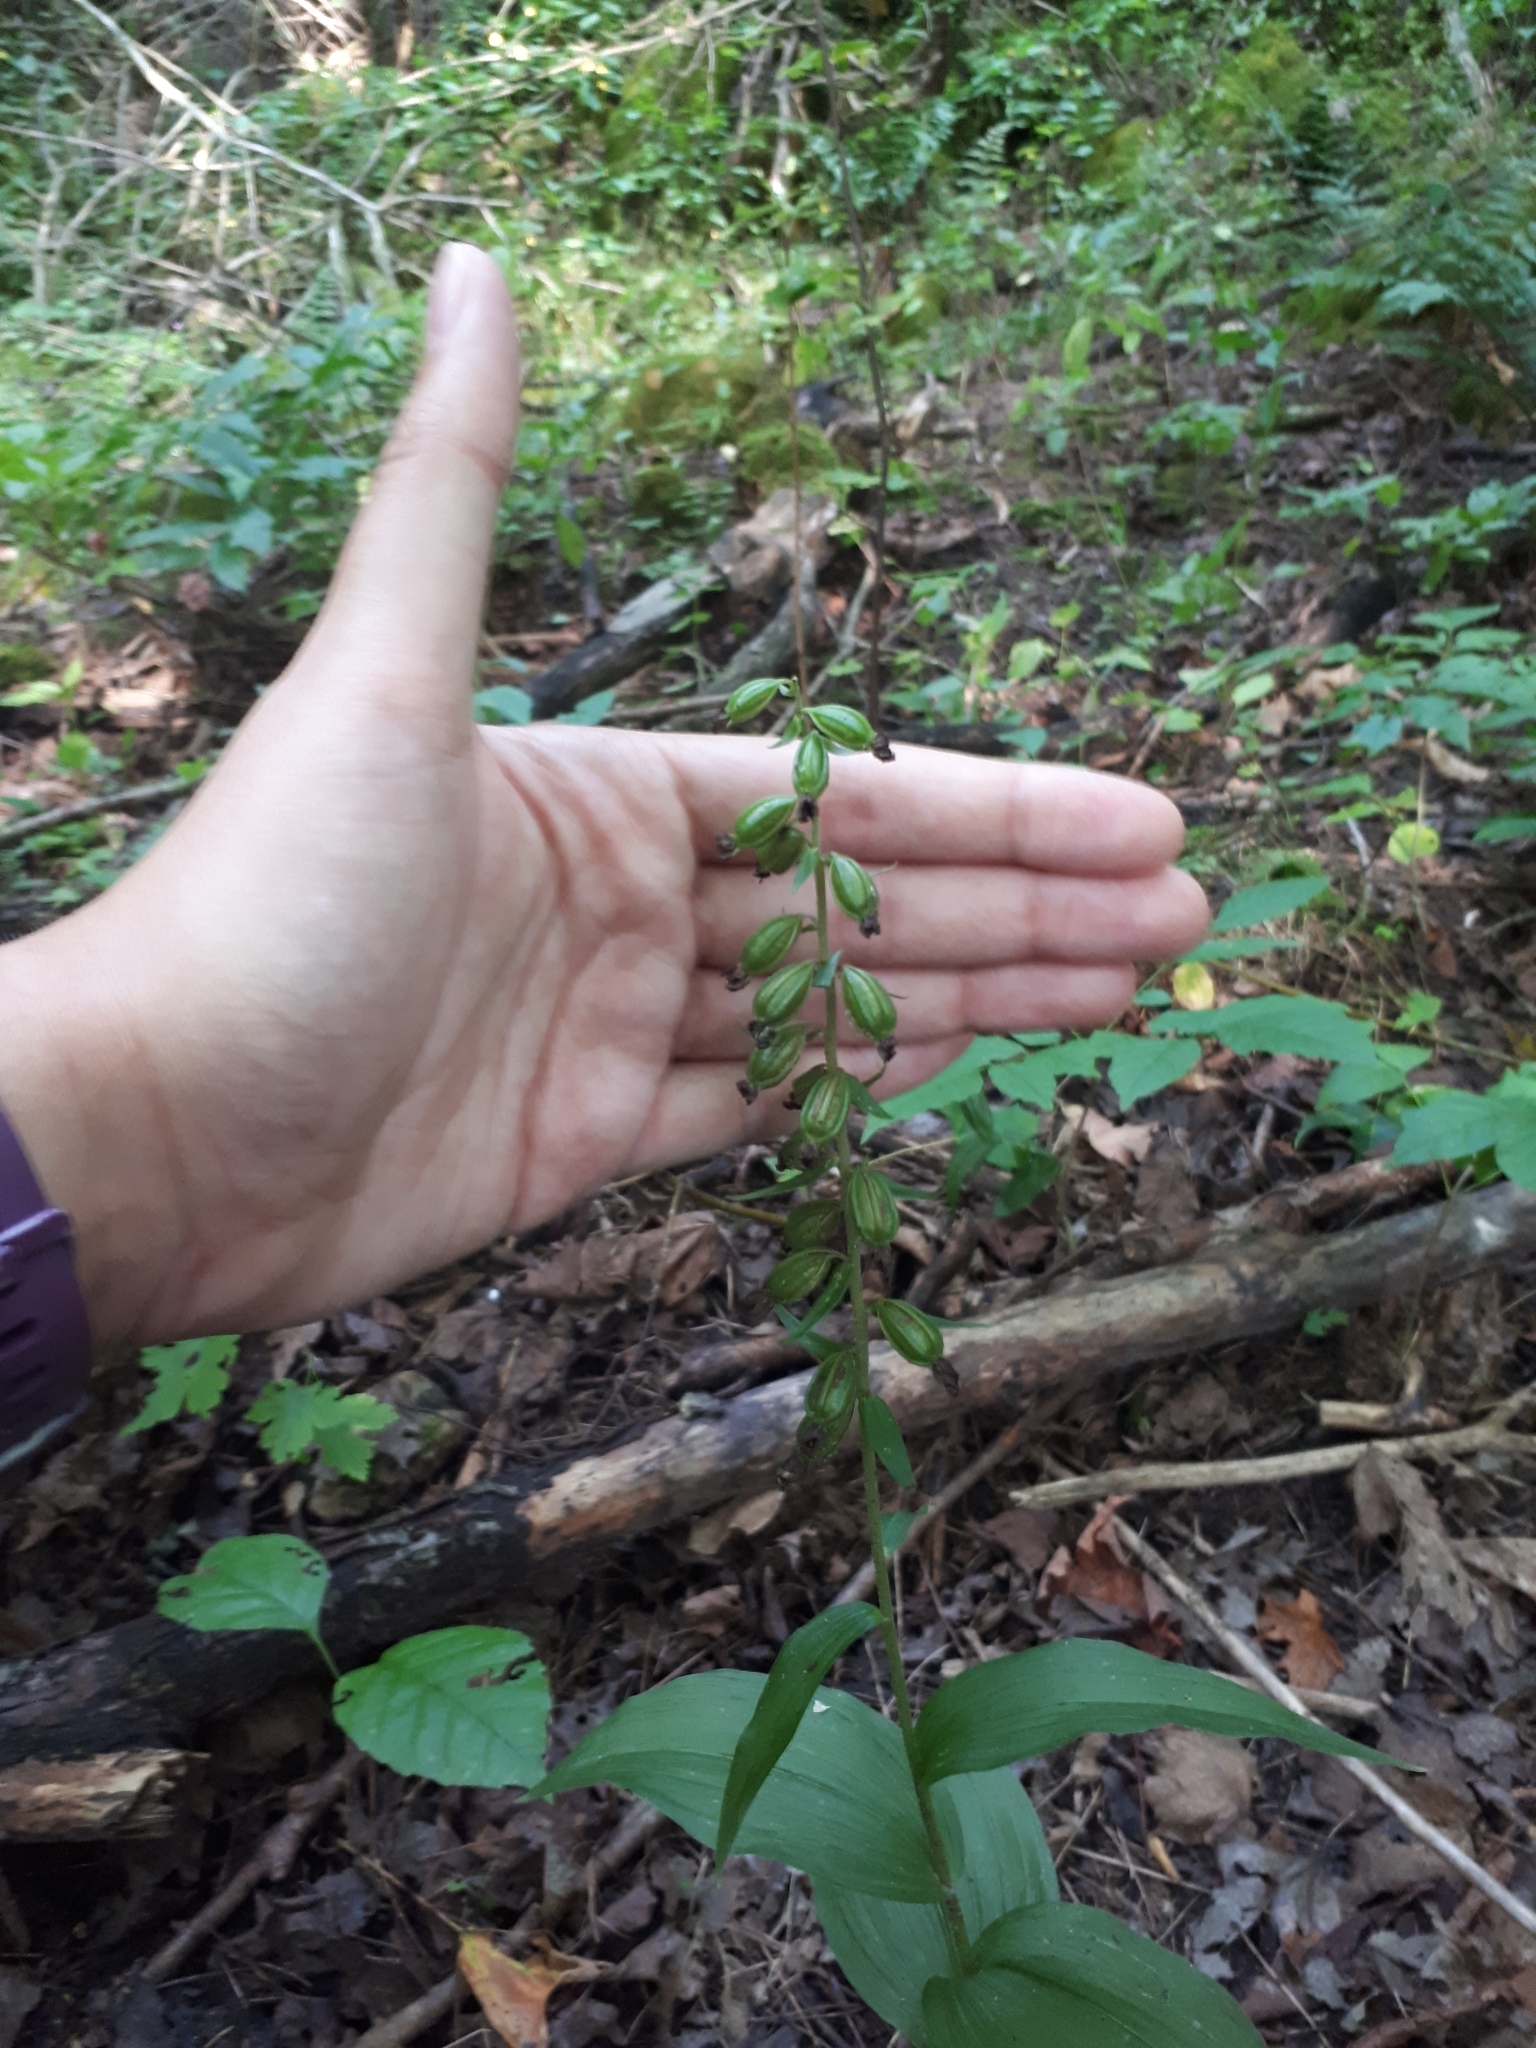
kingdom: Plantae
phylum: Tracheophyta
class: Liliopsida
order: Asparagales
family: Orchidaceae
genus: Epipactis
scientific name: Epipactis helleborine
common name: Broad-leaved helleborine
